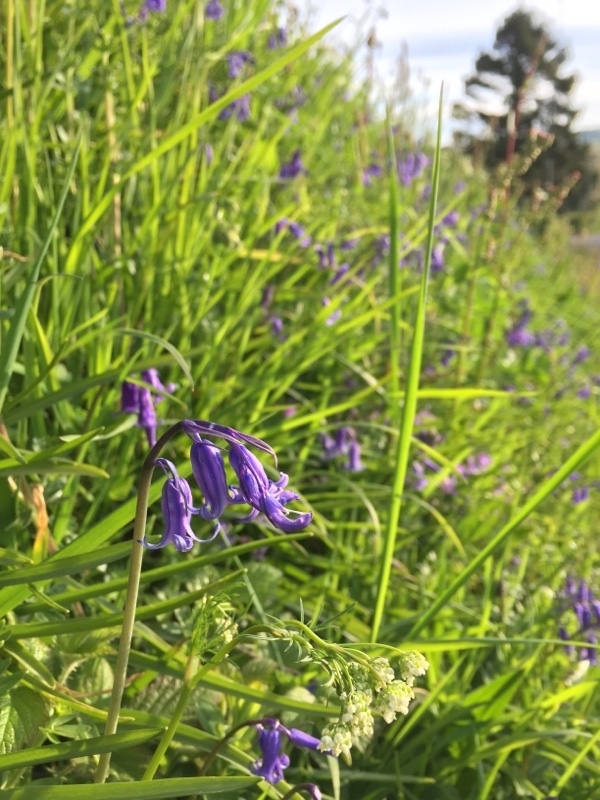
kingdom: Plantae
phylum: Tracheophyta
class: Magnoliopsida
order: Apiales
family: Apiaceae
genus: Conopodium
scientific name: Conopodium majus
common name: Pignut
